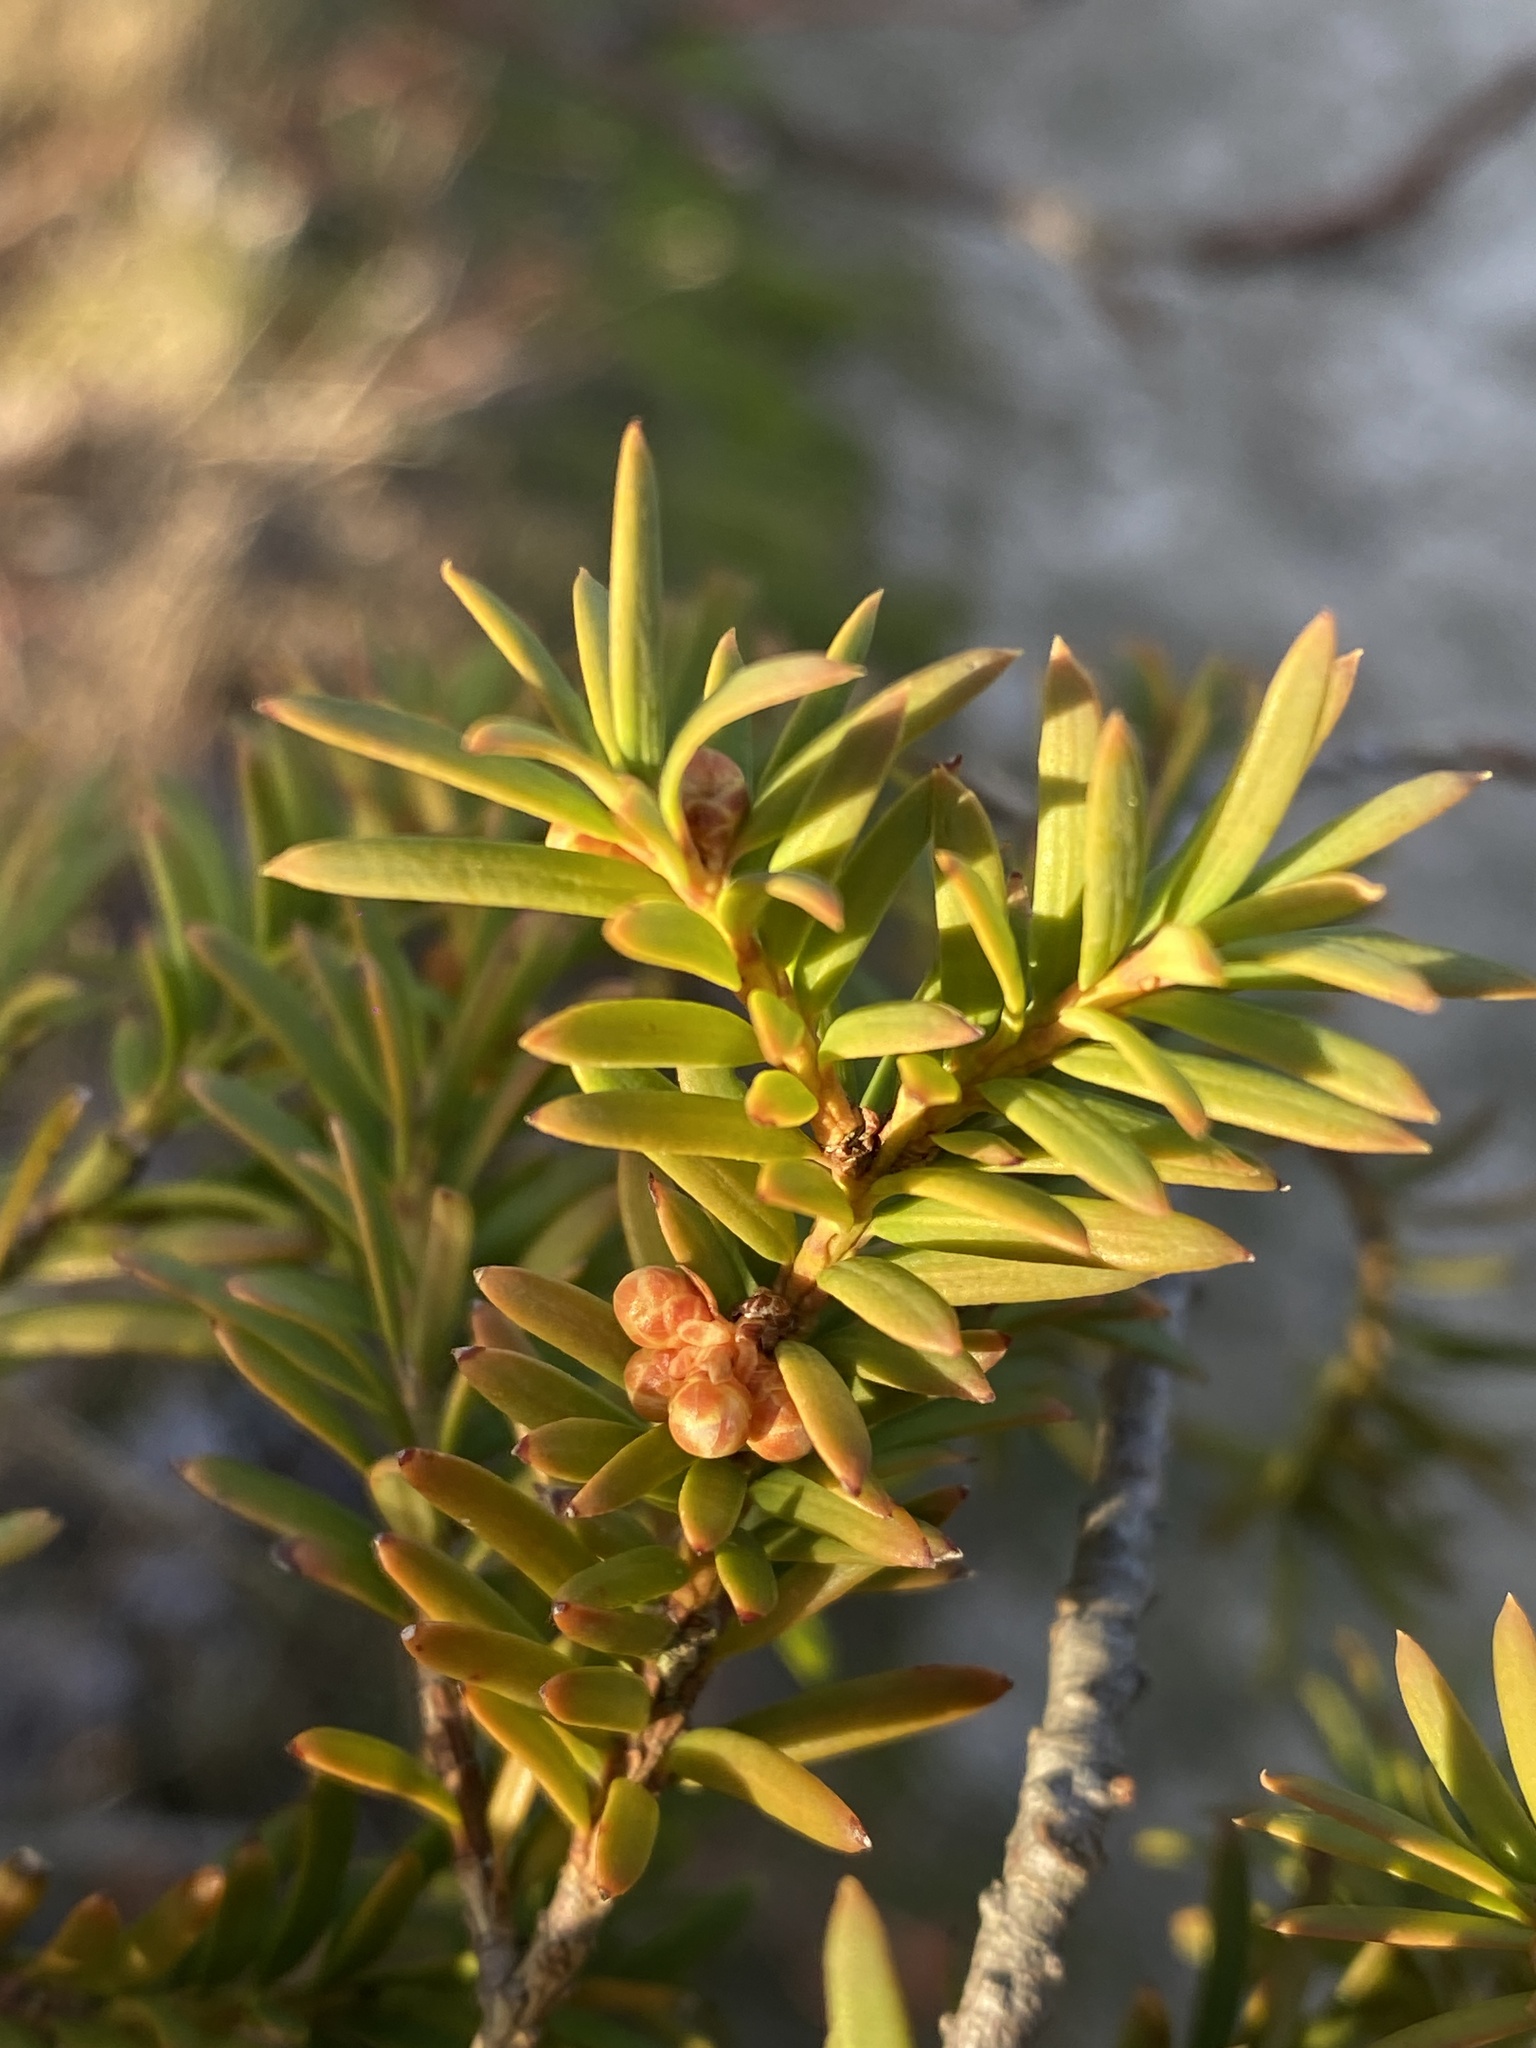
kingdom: Plantae
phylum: Tracheophyta
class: Pinopsida
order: Pinales
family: Taxaceae
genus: Taxus
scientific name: Taxus baccata
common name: Yew
